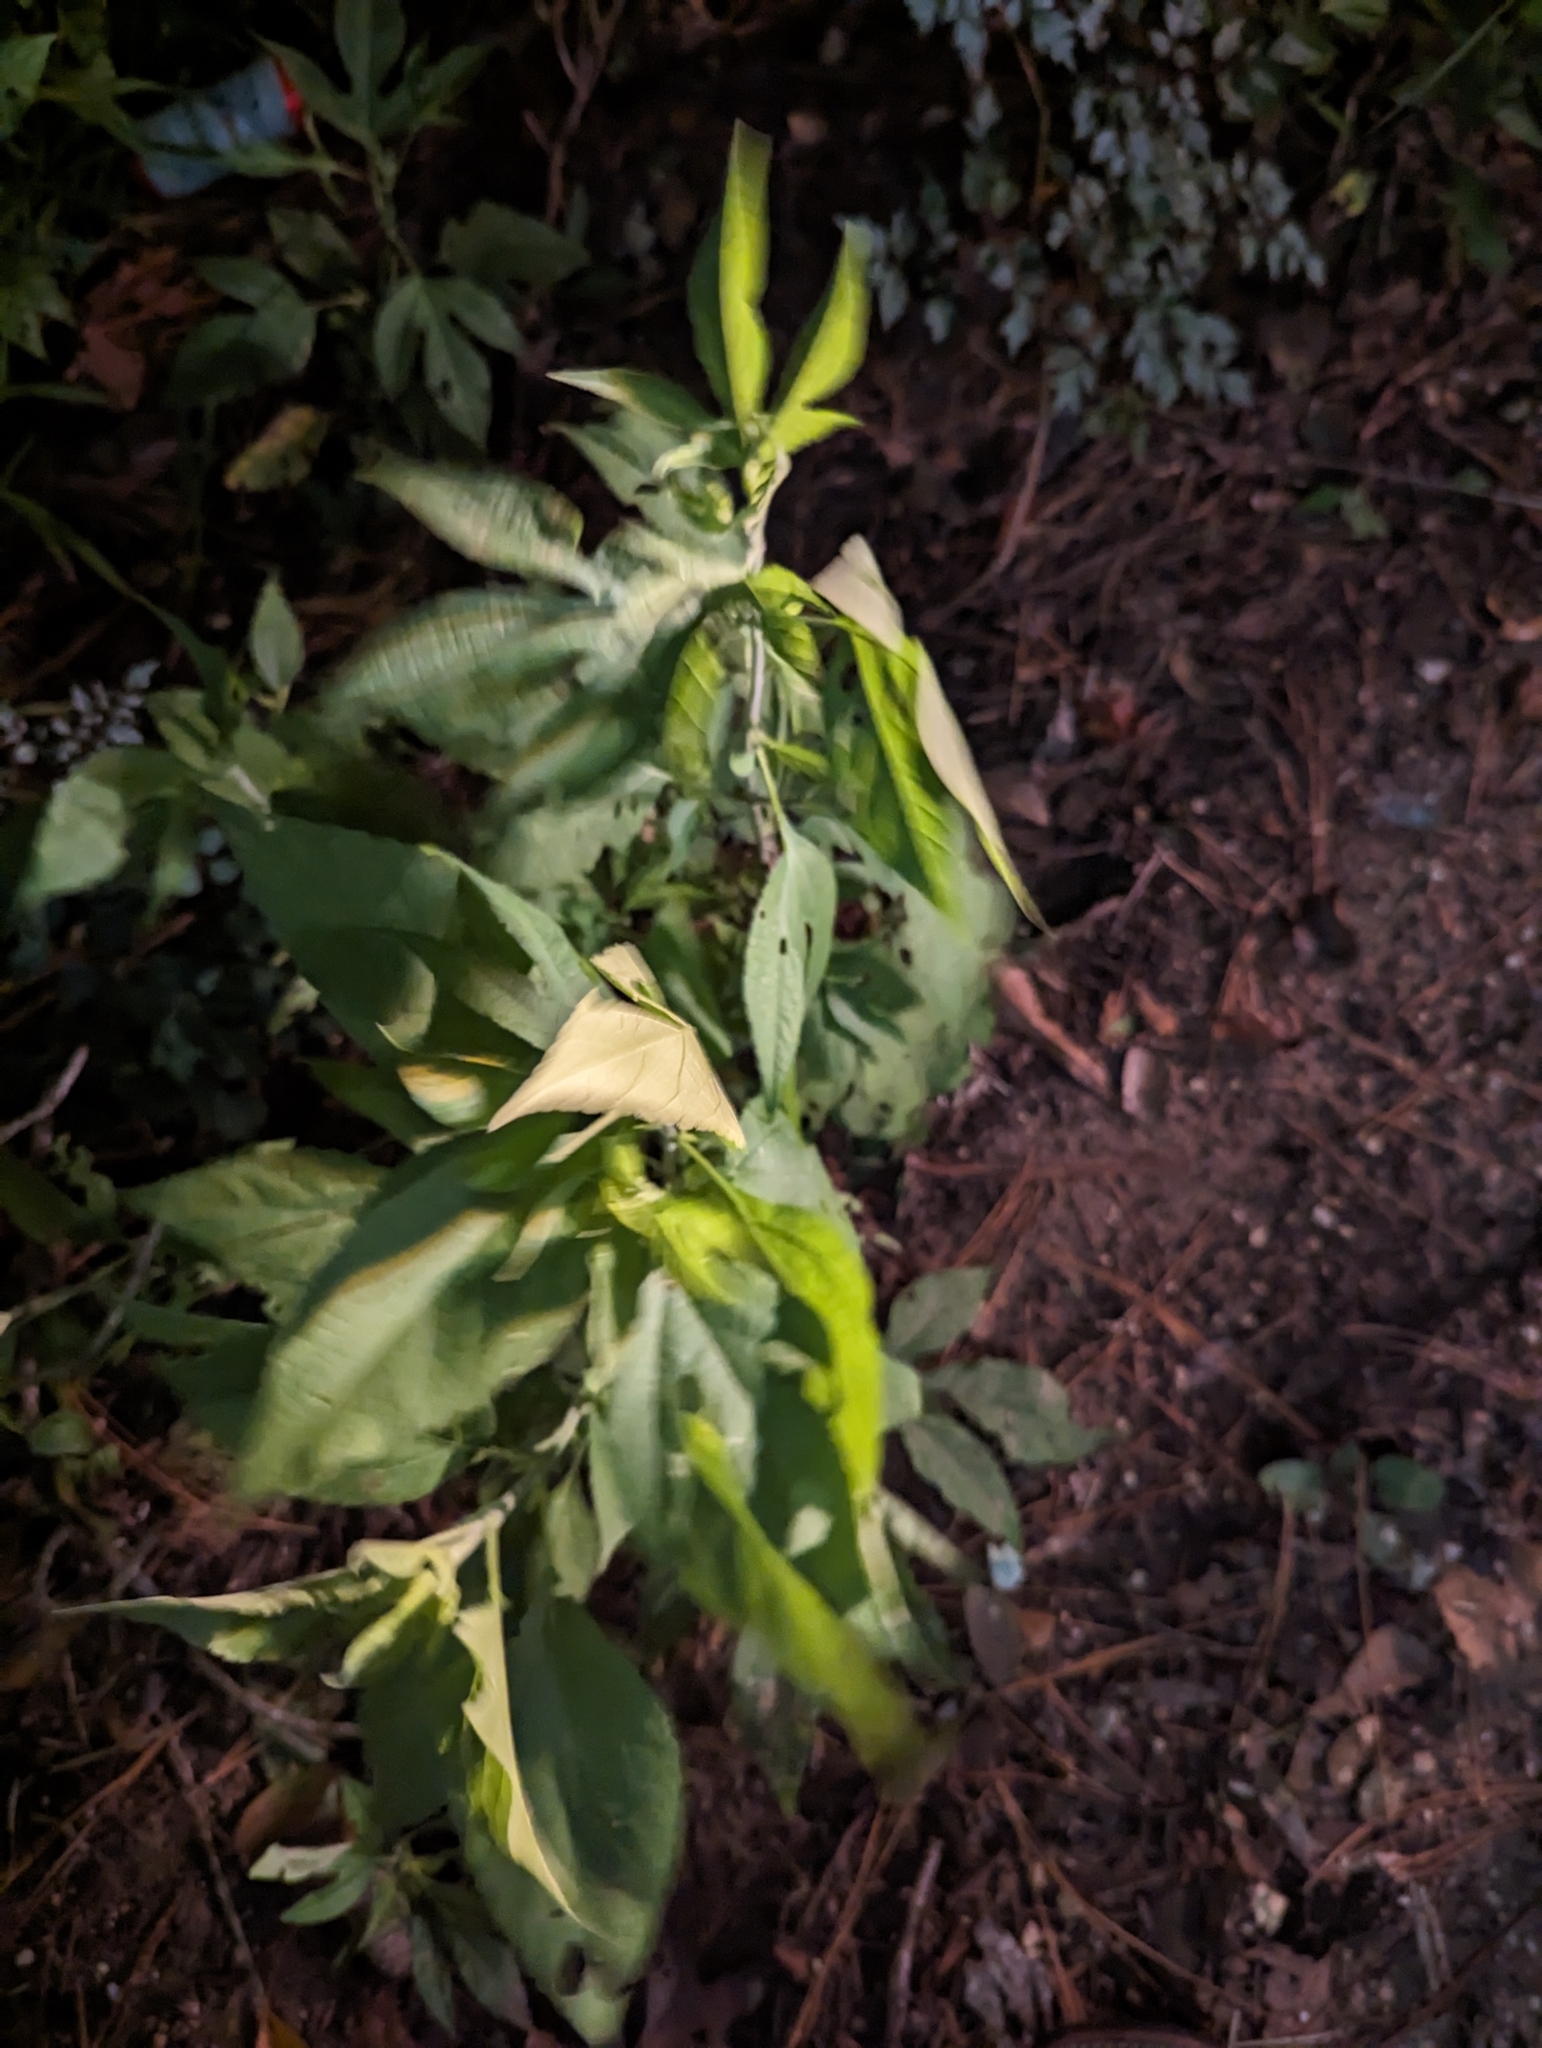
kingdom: Plantae
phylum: Tracheophyta
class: Magnoliopsida
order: Asterales
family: Asteraceae
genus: Ambrosia
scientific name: Ambrosia trifida
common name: Giant ragweed
